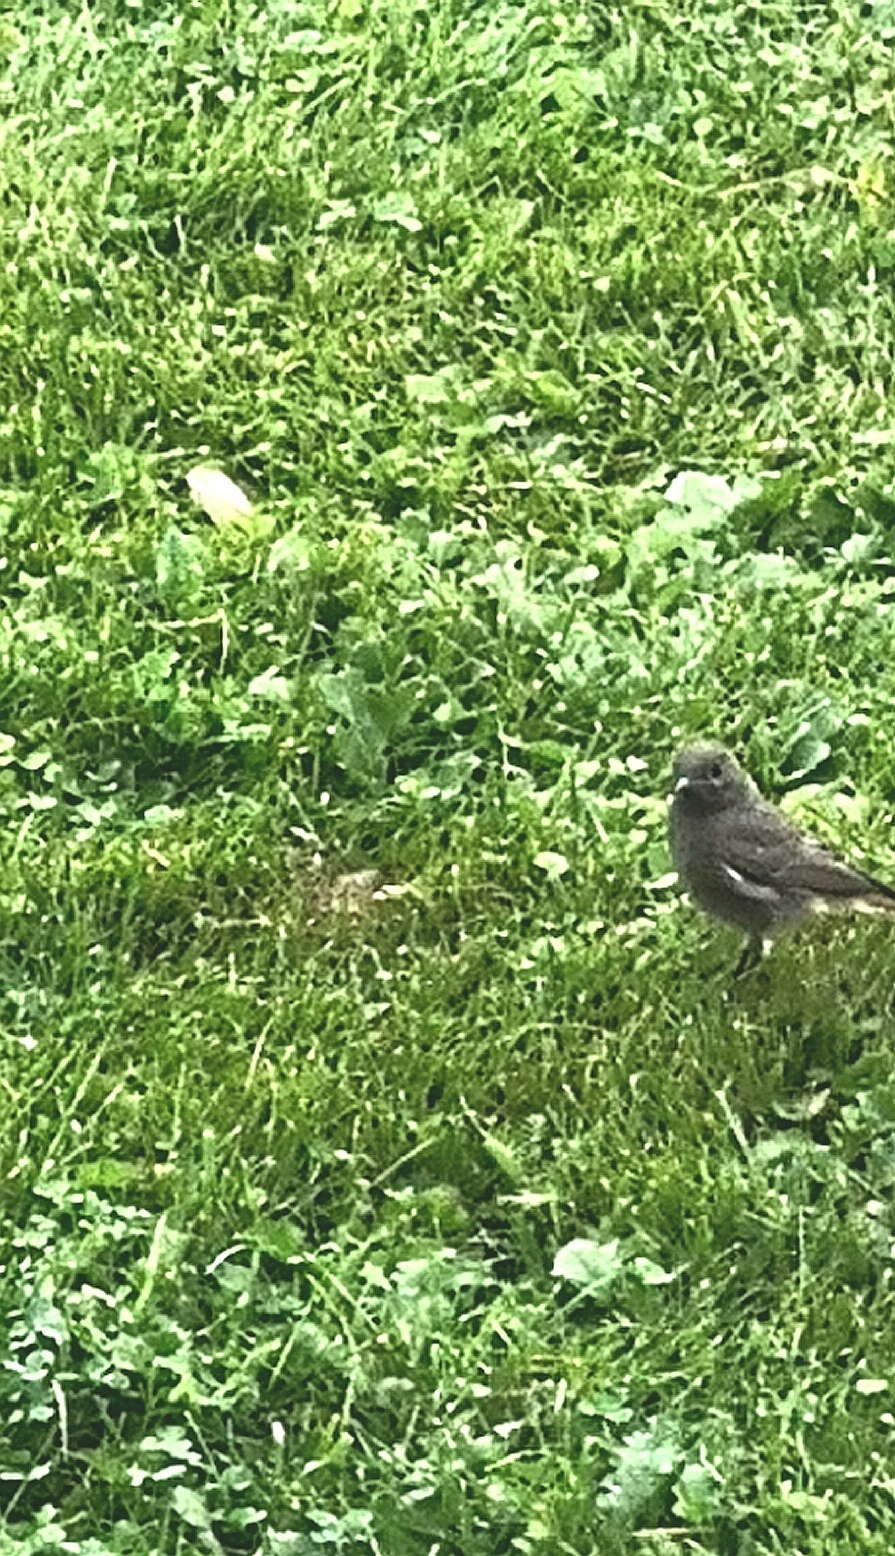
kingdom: Animalia
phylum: Chordata
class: Aves
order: Passeriformes
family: Muscicapidae
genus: Phoenicurus
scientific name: Phoenicurus ochruros
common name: Black redstart
